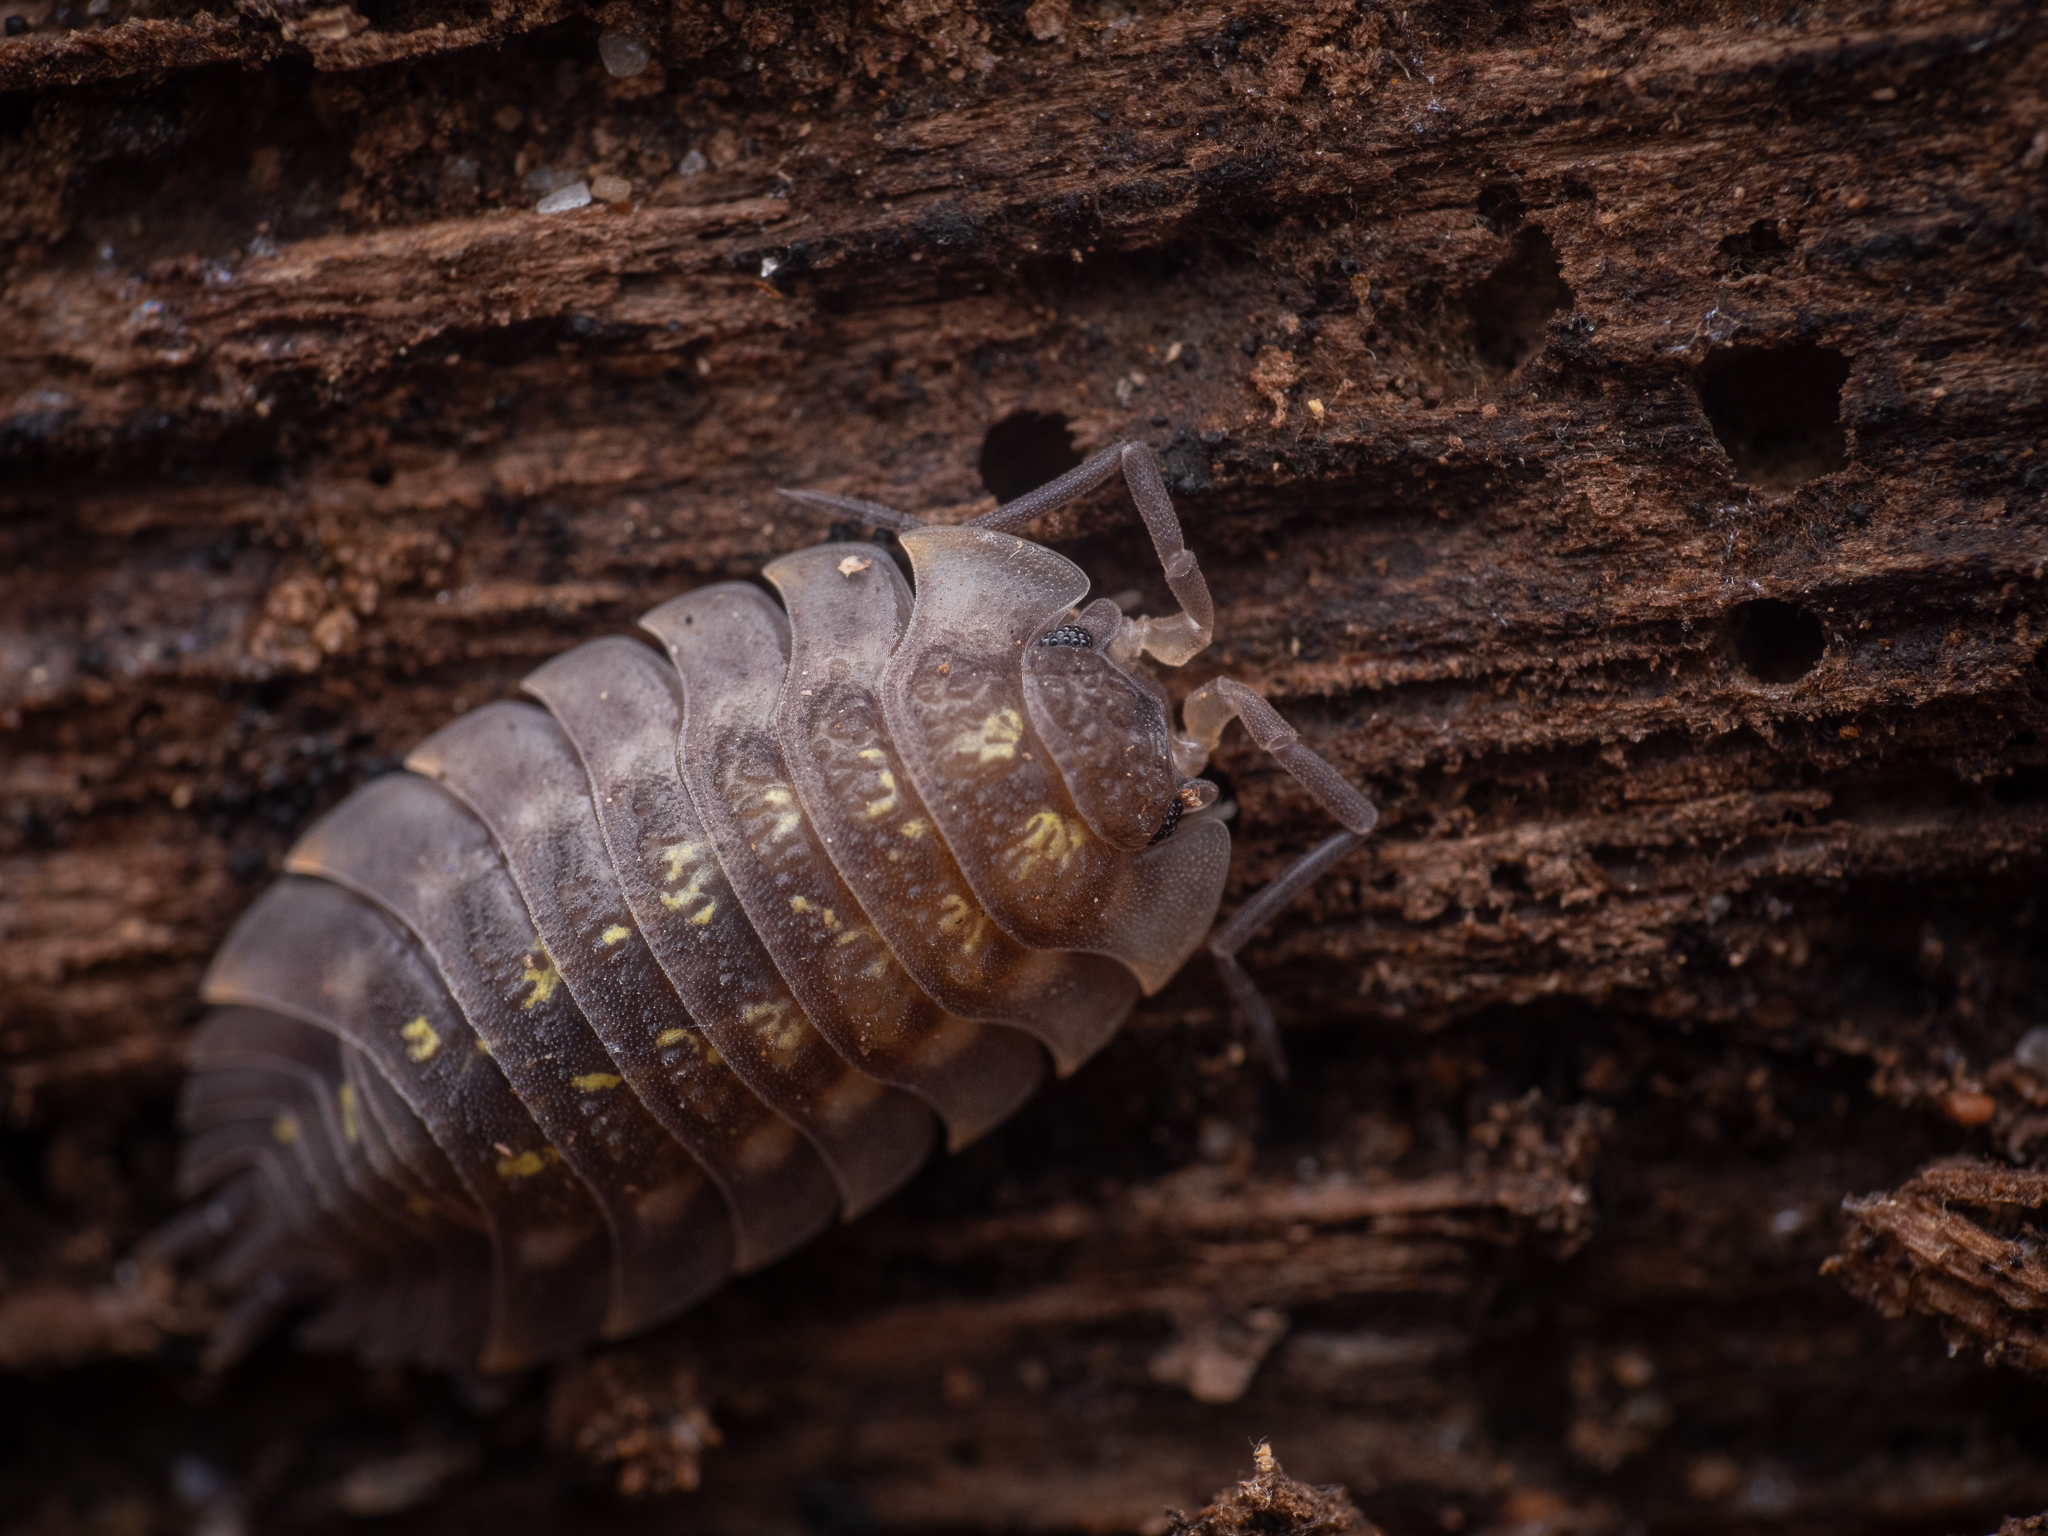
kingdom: Animalia
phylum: Arthropoda
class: Malacostraca
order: Isopoda
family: Oniscidae
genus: Oniscus
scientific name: Oniscus asellus
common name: Common shiny woodlouse
